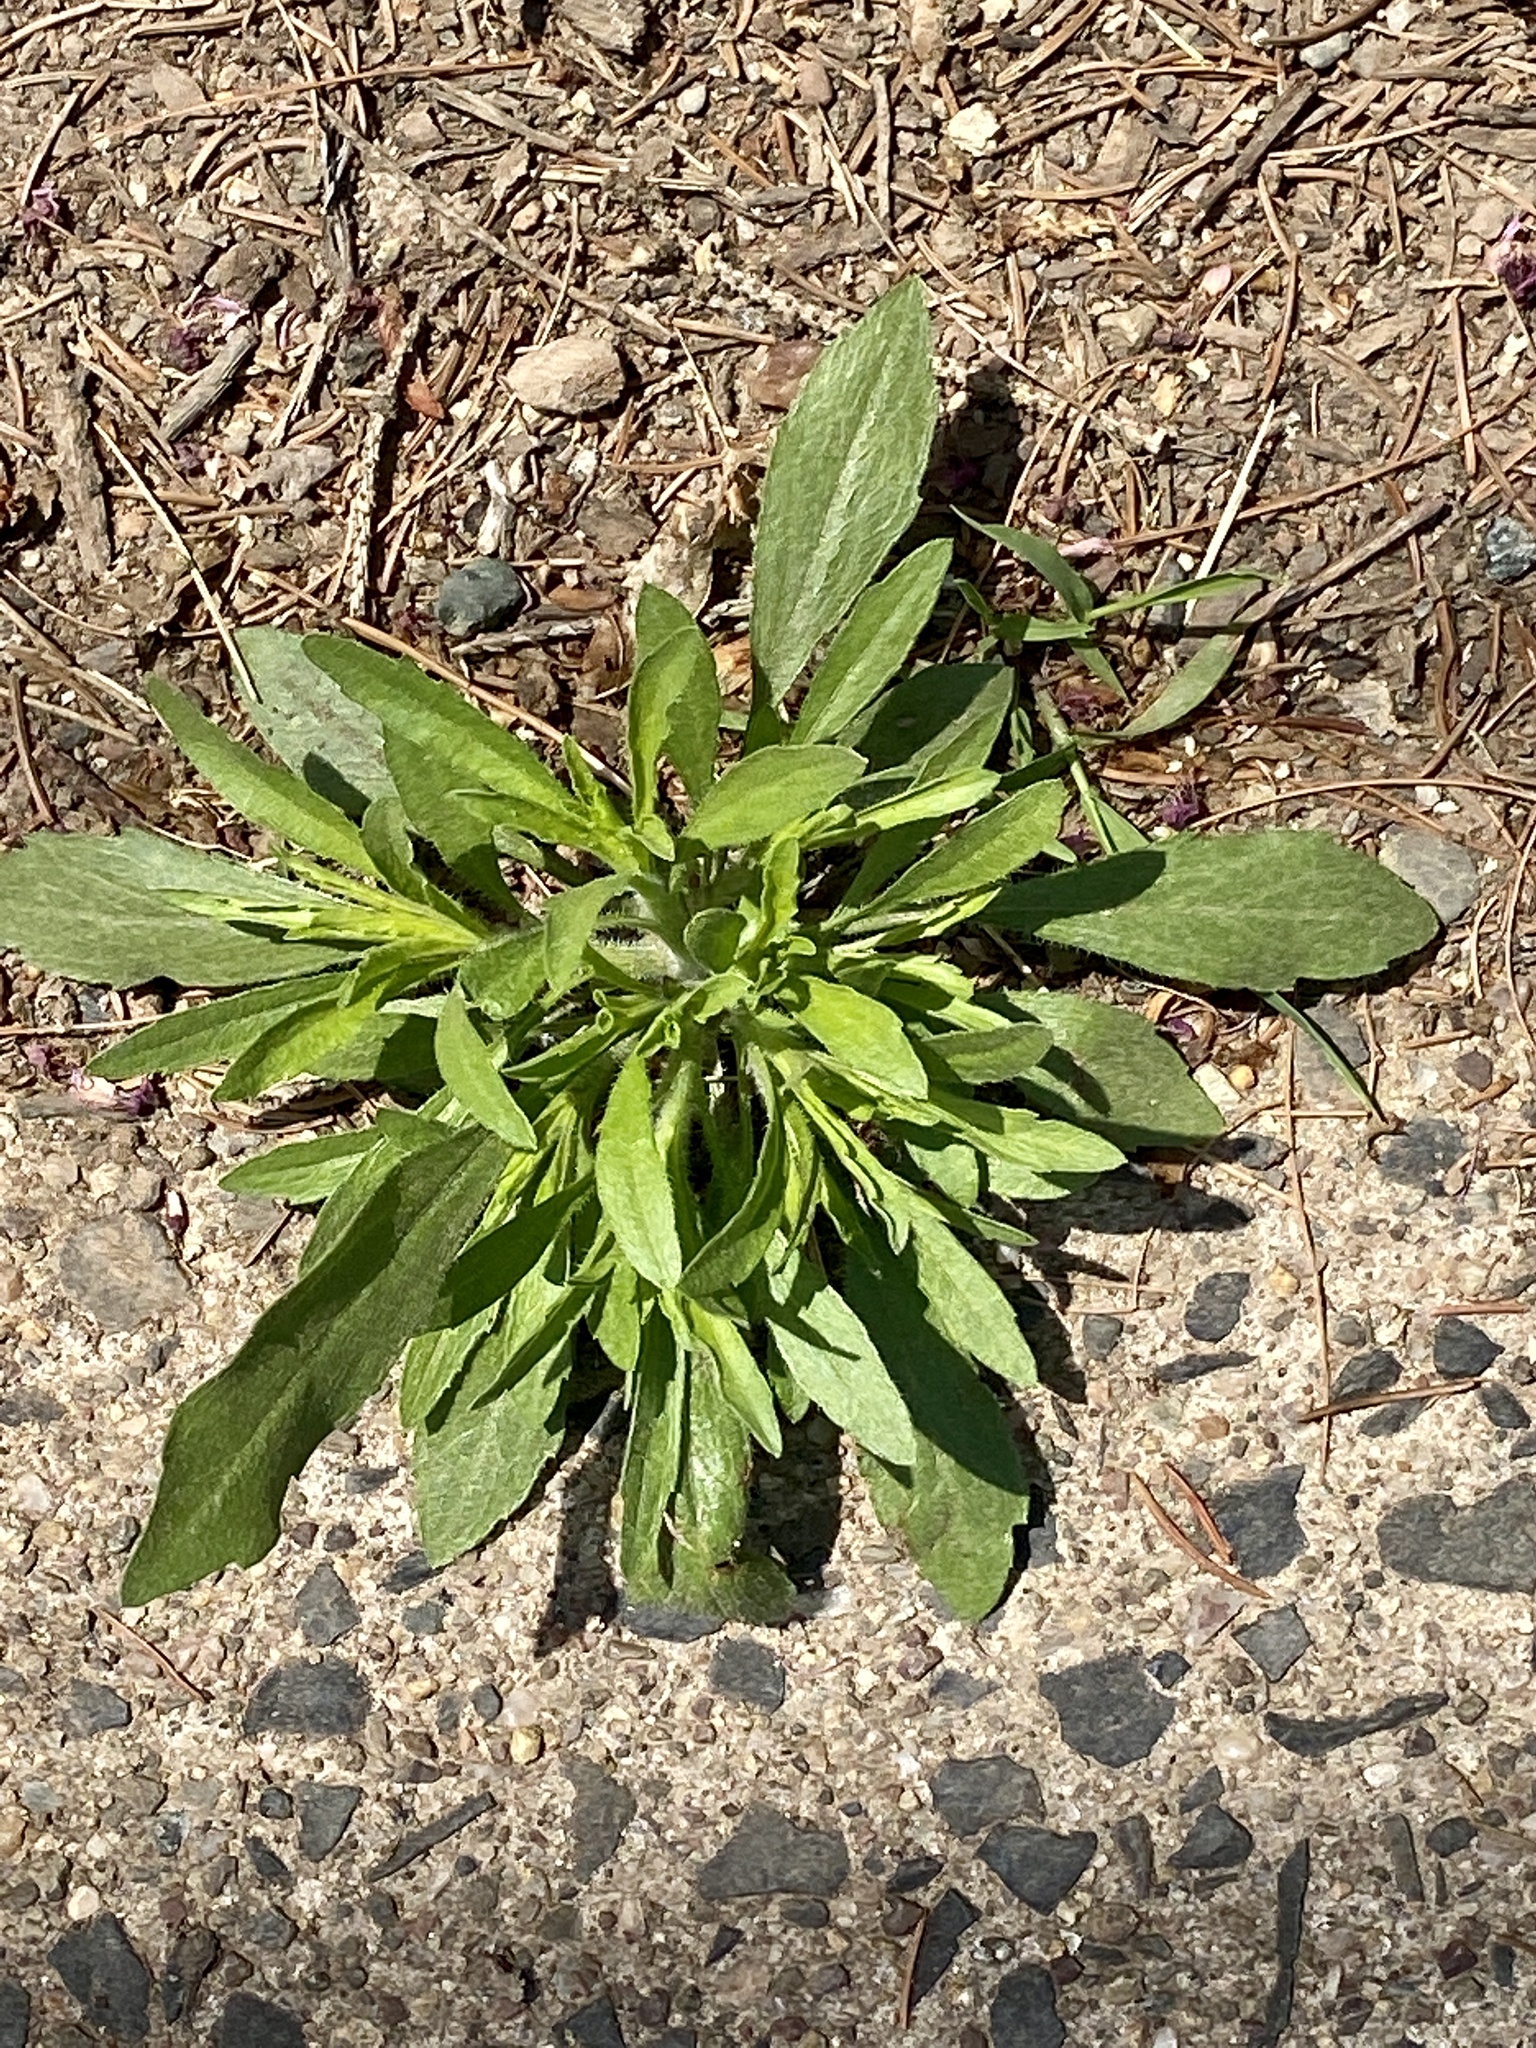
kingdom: Plantae
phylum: Tracheophyta
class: Magnoliopsida
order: Asterales
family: Asteraceae
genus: Erigeron
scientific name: Erigeron canadensis
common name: Canadian fleabane
